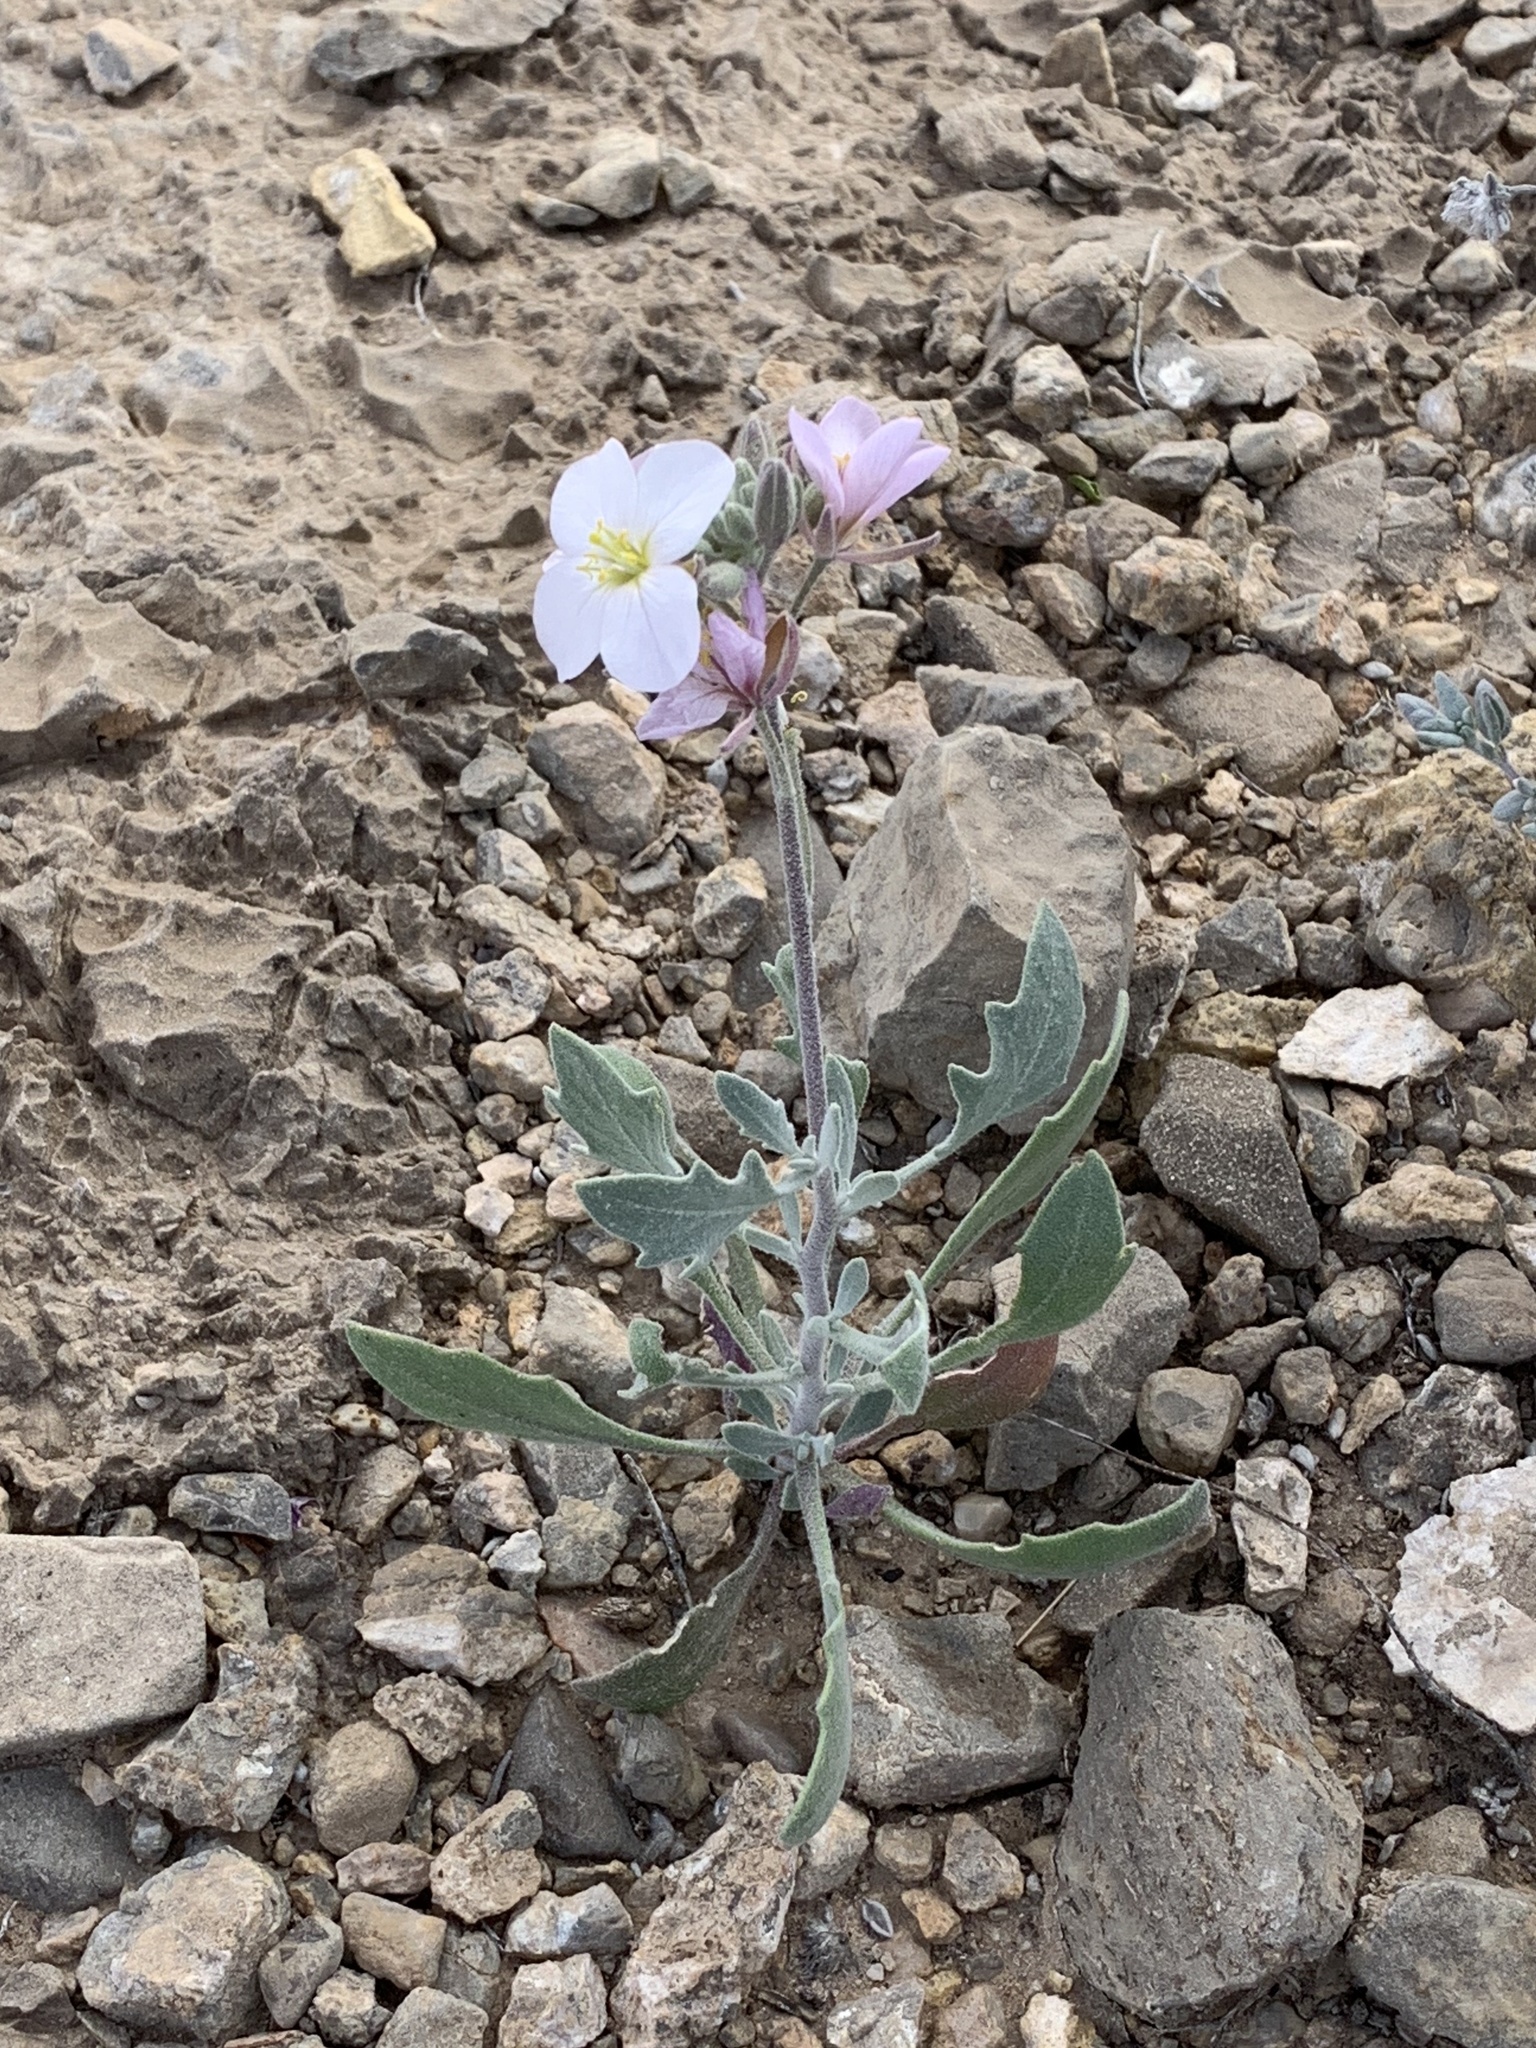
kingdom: Plantae
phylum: Tracheophyta
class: Magnoliopsida
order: Brassicales
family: Brassicaceae
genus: Nerisyrenia
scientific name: Nerisyrenia camporum
